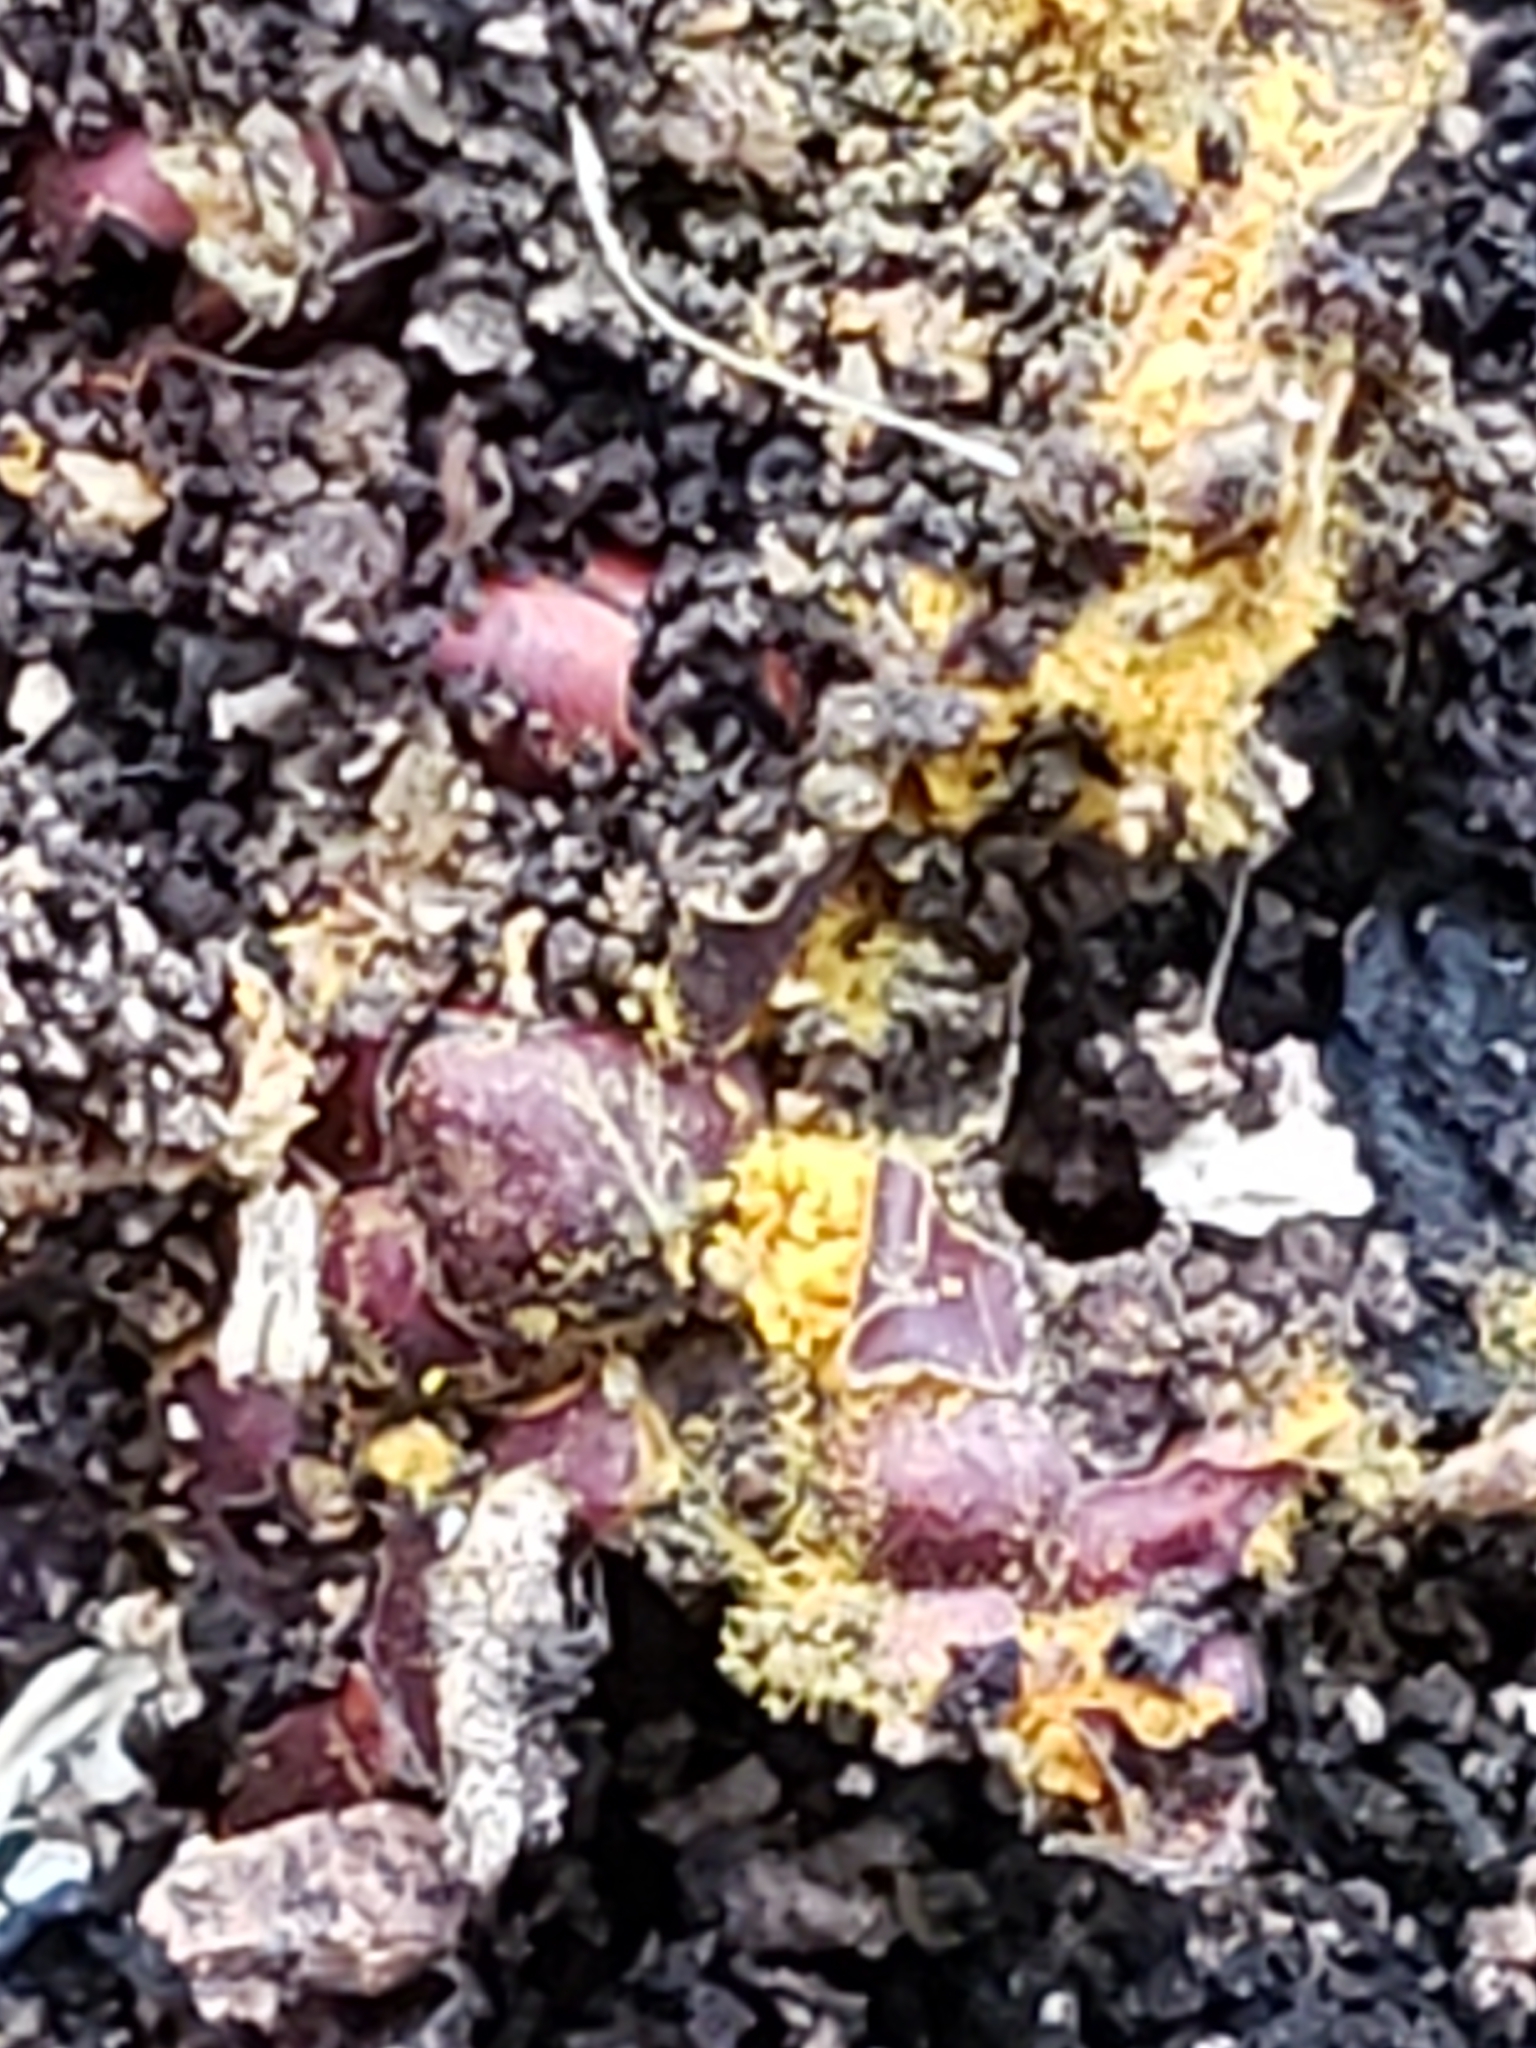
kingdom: Protozoa
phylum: Mycetozoa
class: Myxomycetes
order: Trichiales
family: Trichiaceae
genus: Perichaena
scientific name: Perichaena depressa
